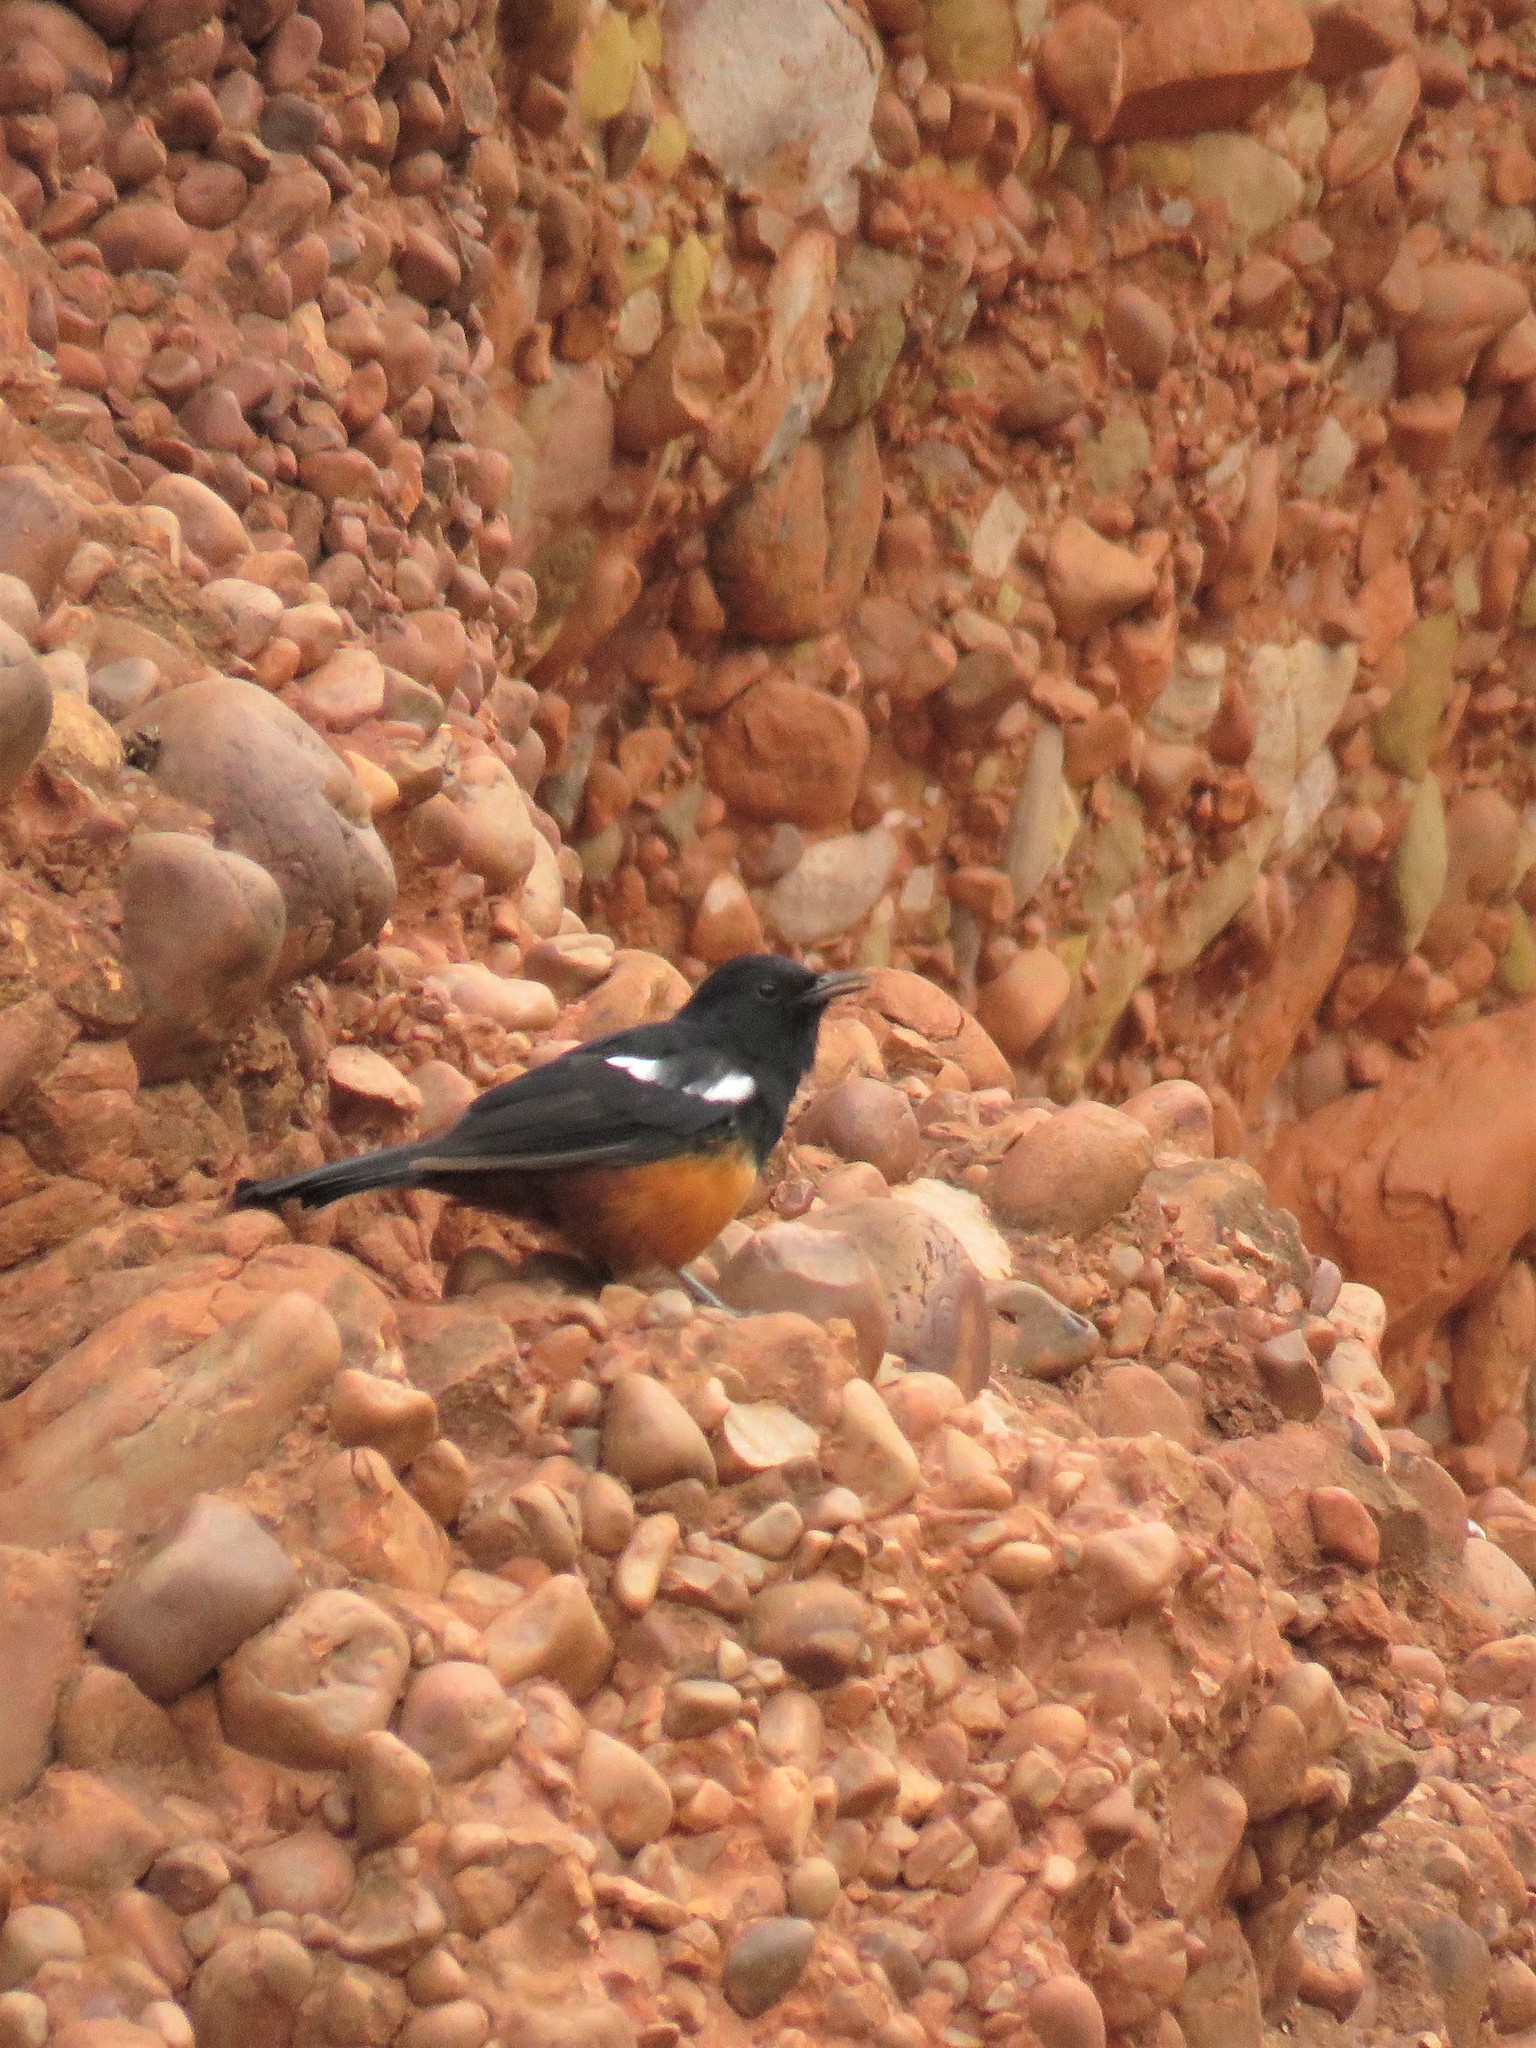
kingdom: Animalia
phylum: Chordata
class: Aves
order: Passeriformes
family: Muscicapidae
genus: Thamnolaea
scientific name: Thamnolaea cinnamomeiventris
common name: Mocking cliff chat
